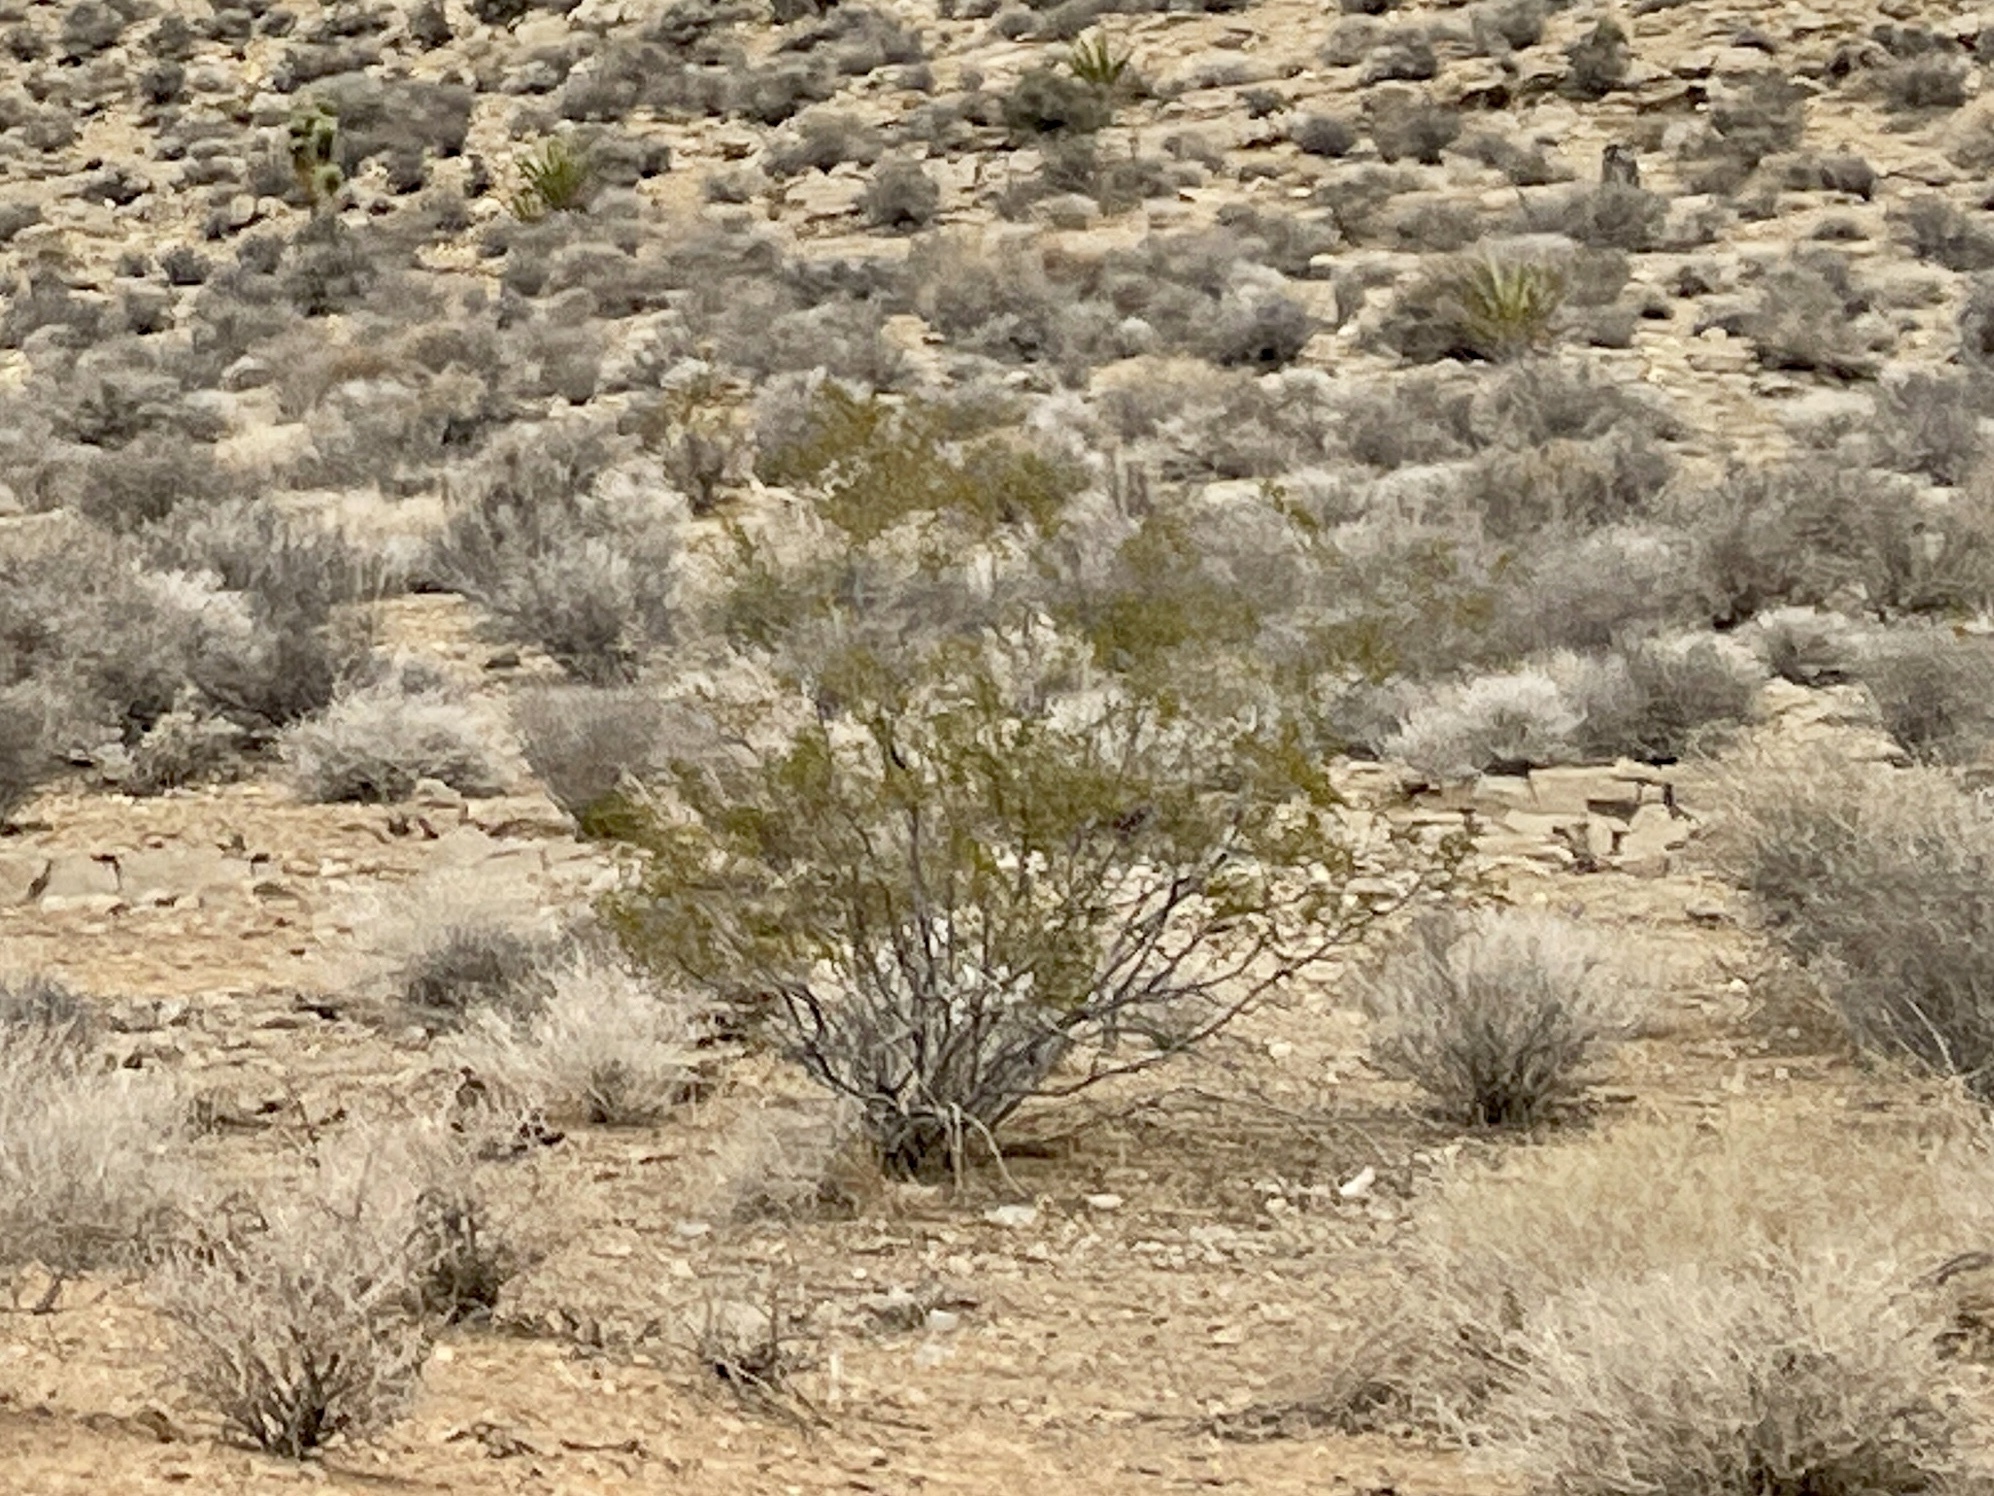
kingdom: Plantae
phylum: Tracheophyta
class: Magnoliopsida
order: Zygophyllales
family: Zygophyllaceae
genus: Larrea
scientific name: Larrea tridentata
